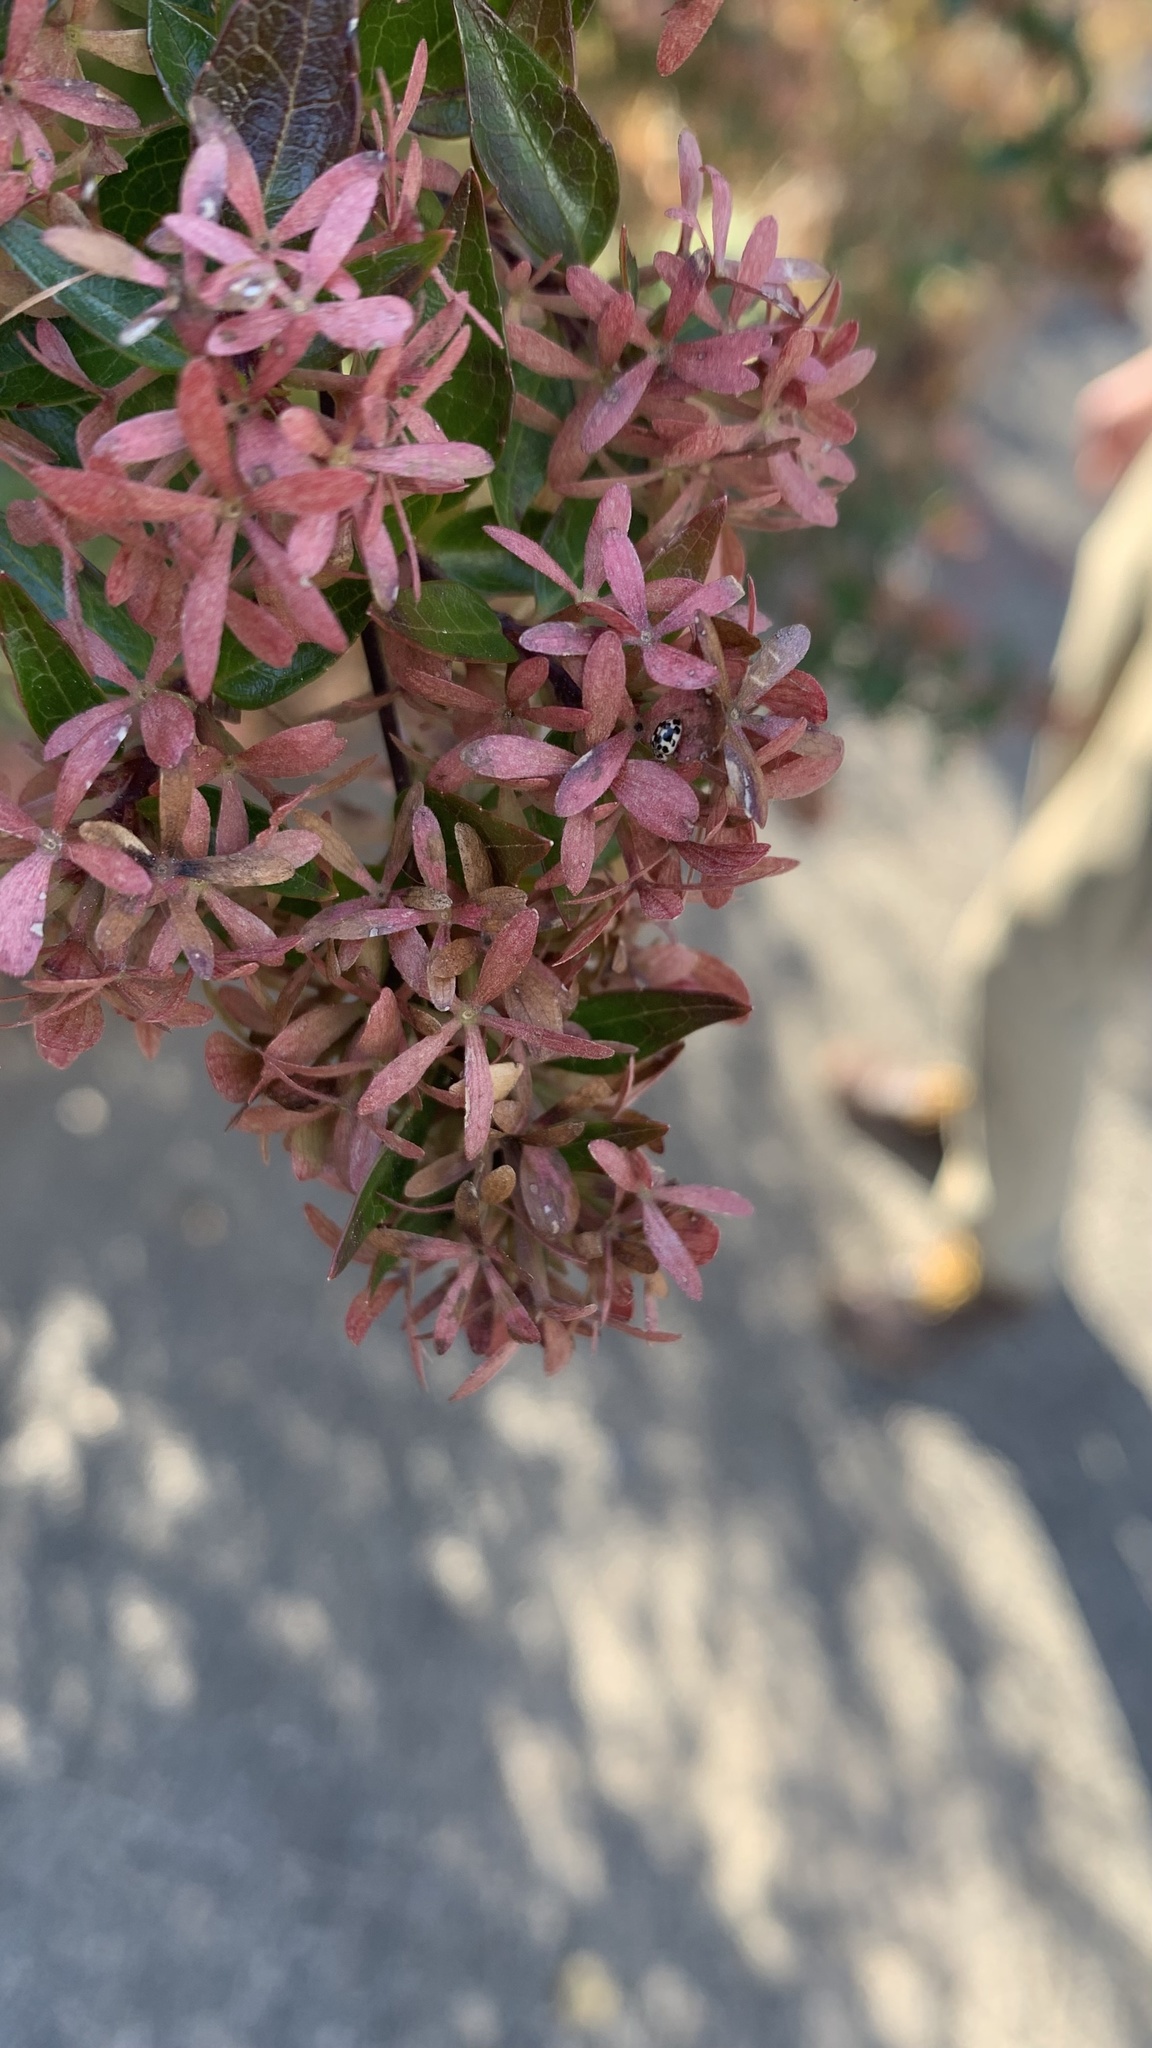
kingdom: Animalia
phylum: Arthropoda
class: Insecta
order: Coleoptera
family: Coccinellidae
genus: Psyllobora
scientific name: Psyllobora vigintimaculata
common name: Ladybird beetle
